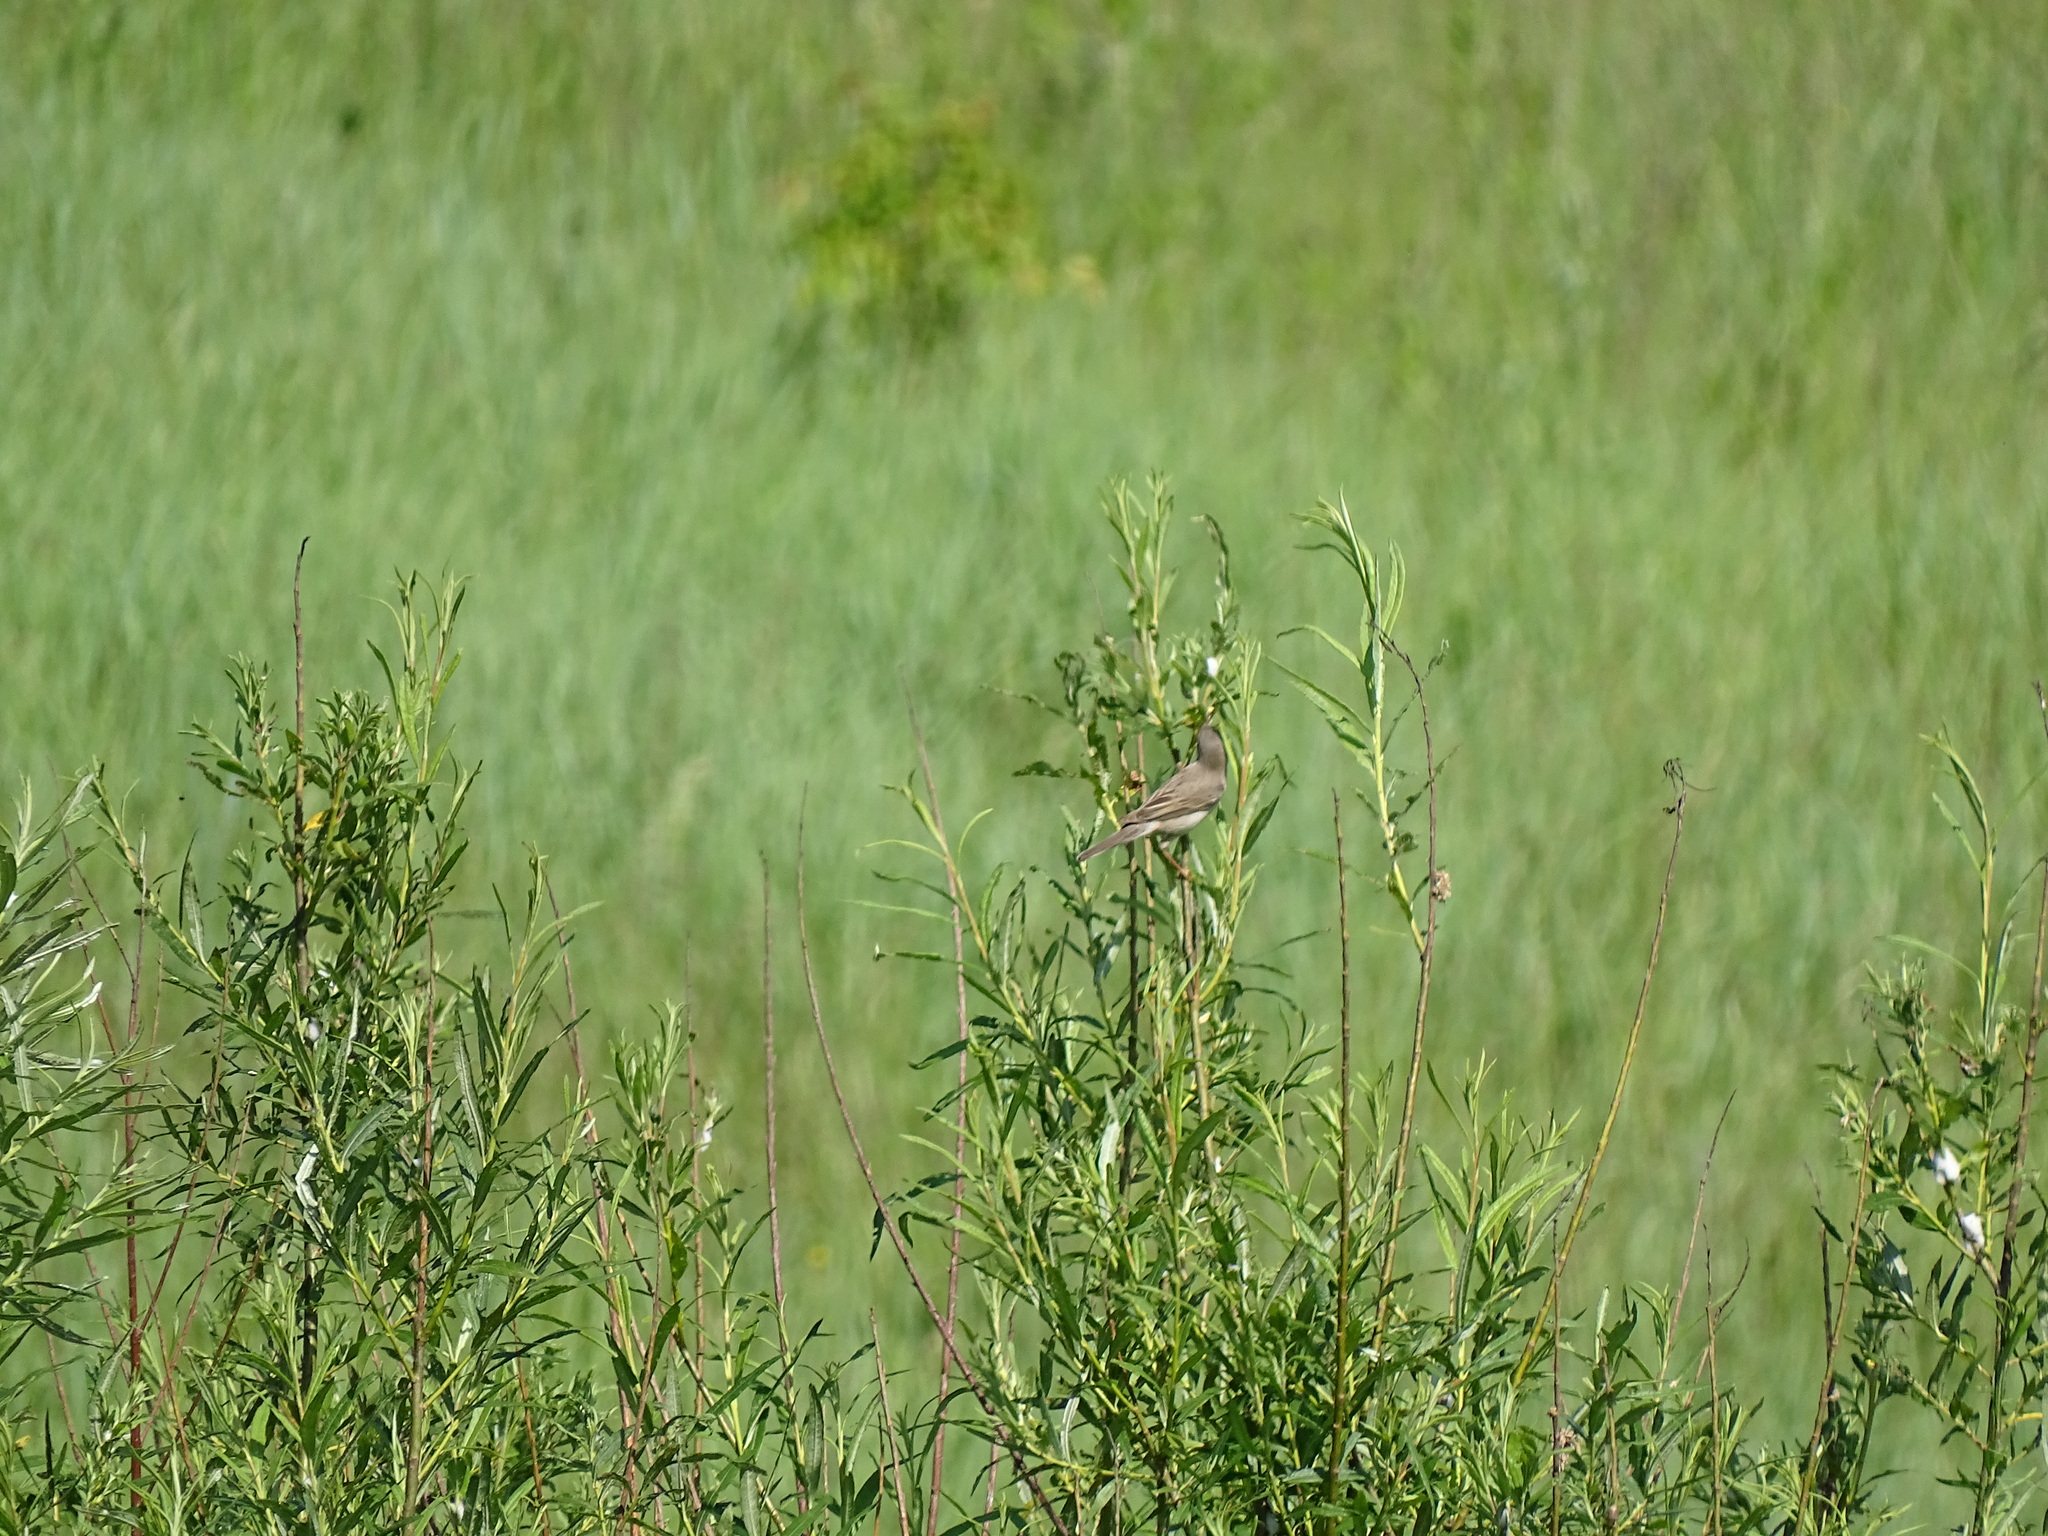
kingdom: Animalia
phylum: Chordata
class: Aves
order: Passeriformes
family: Sylviidae
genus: Sylvia
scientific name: Sylvia communis
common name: Common whitethroat
